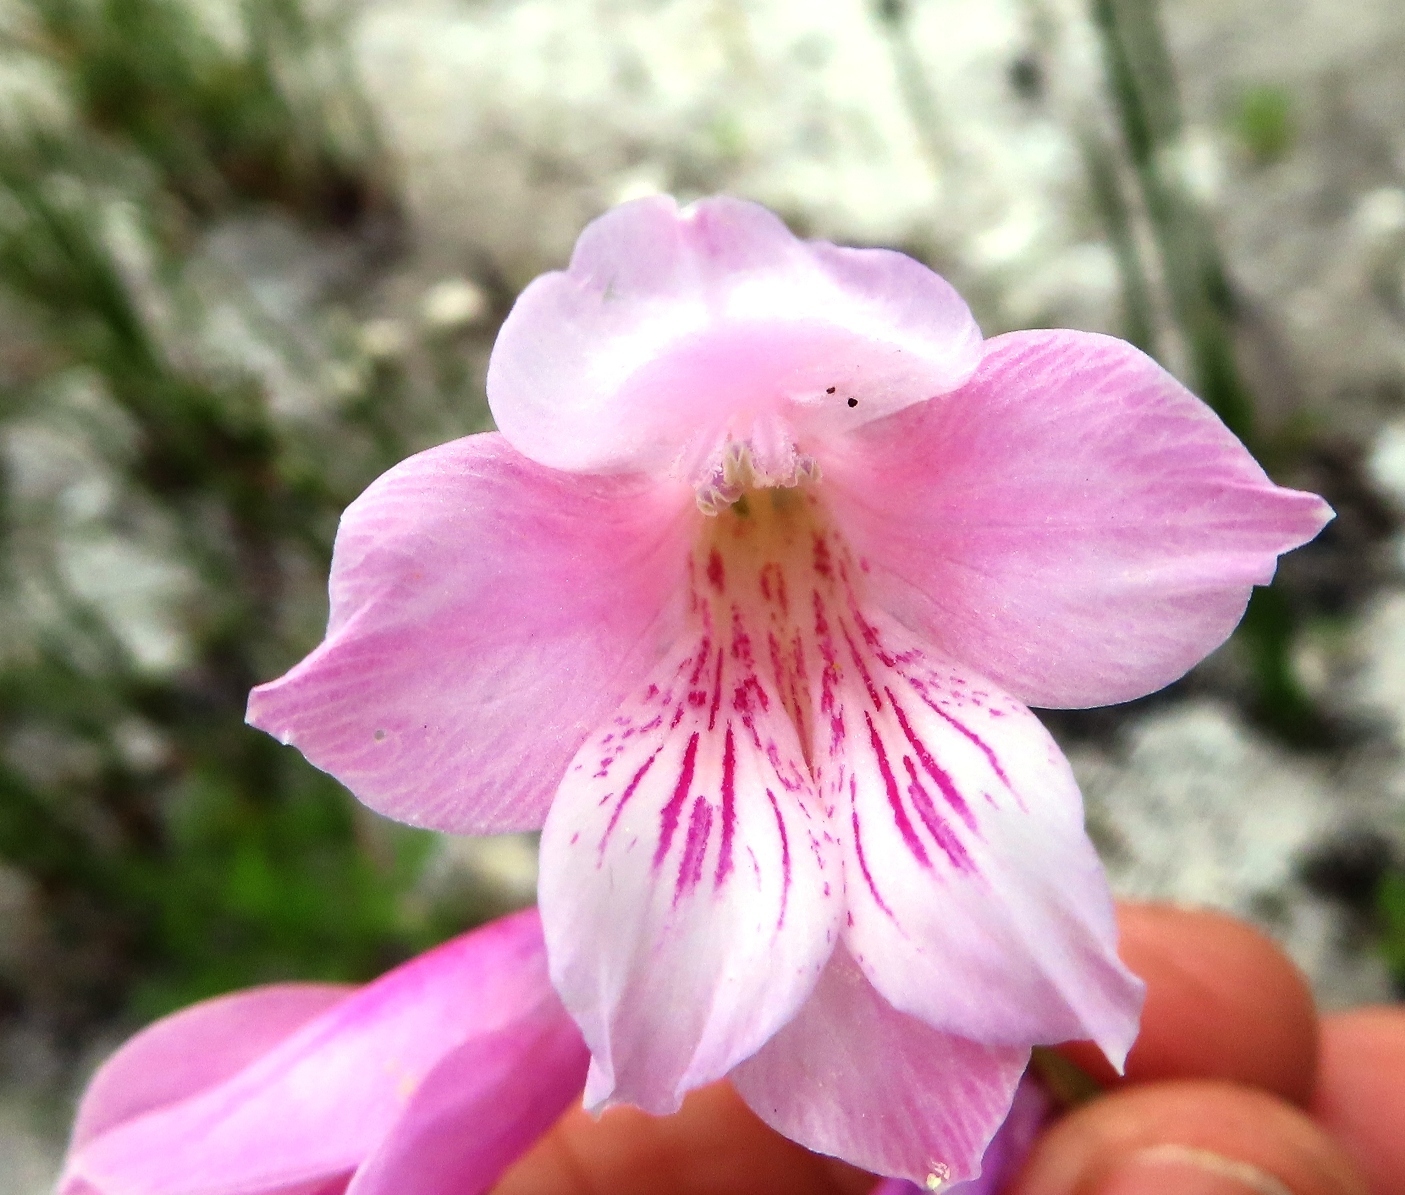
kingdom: Plantae
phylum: Tracheophyta
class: Liliopsida
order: Asparagales
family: Iridaceae
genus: Gladiolus
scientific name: Gladiolus hirsutus
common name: Small pink afrikaner
